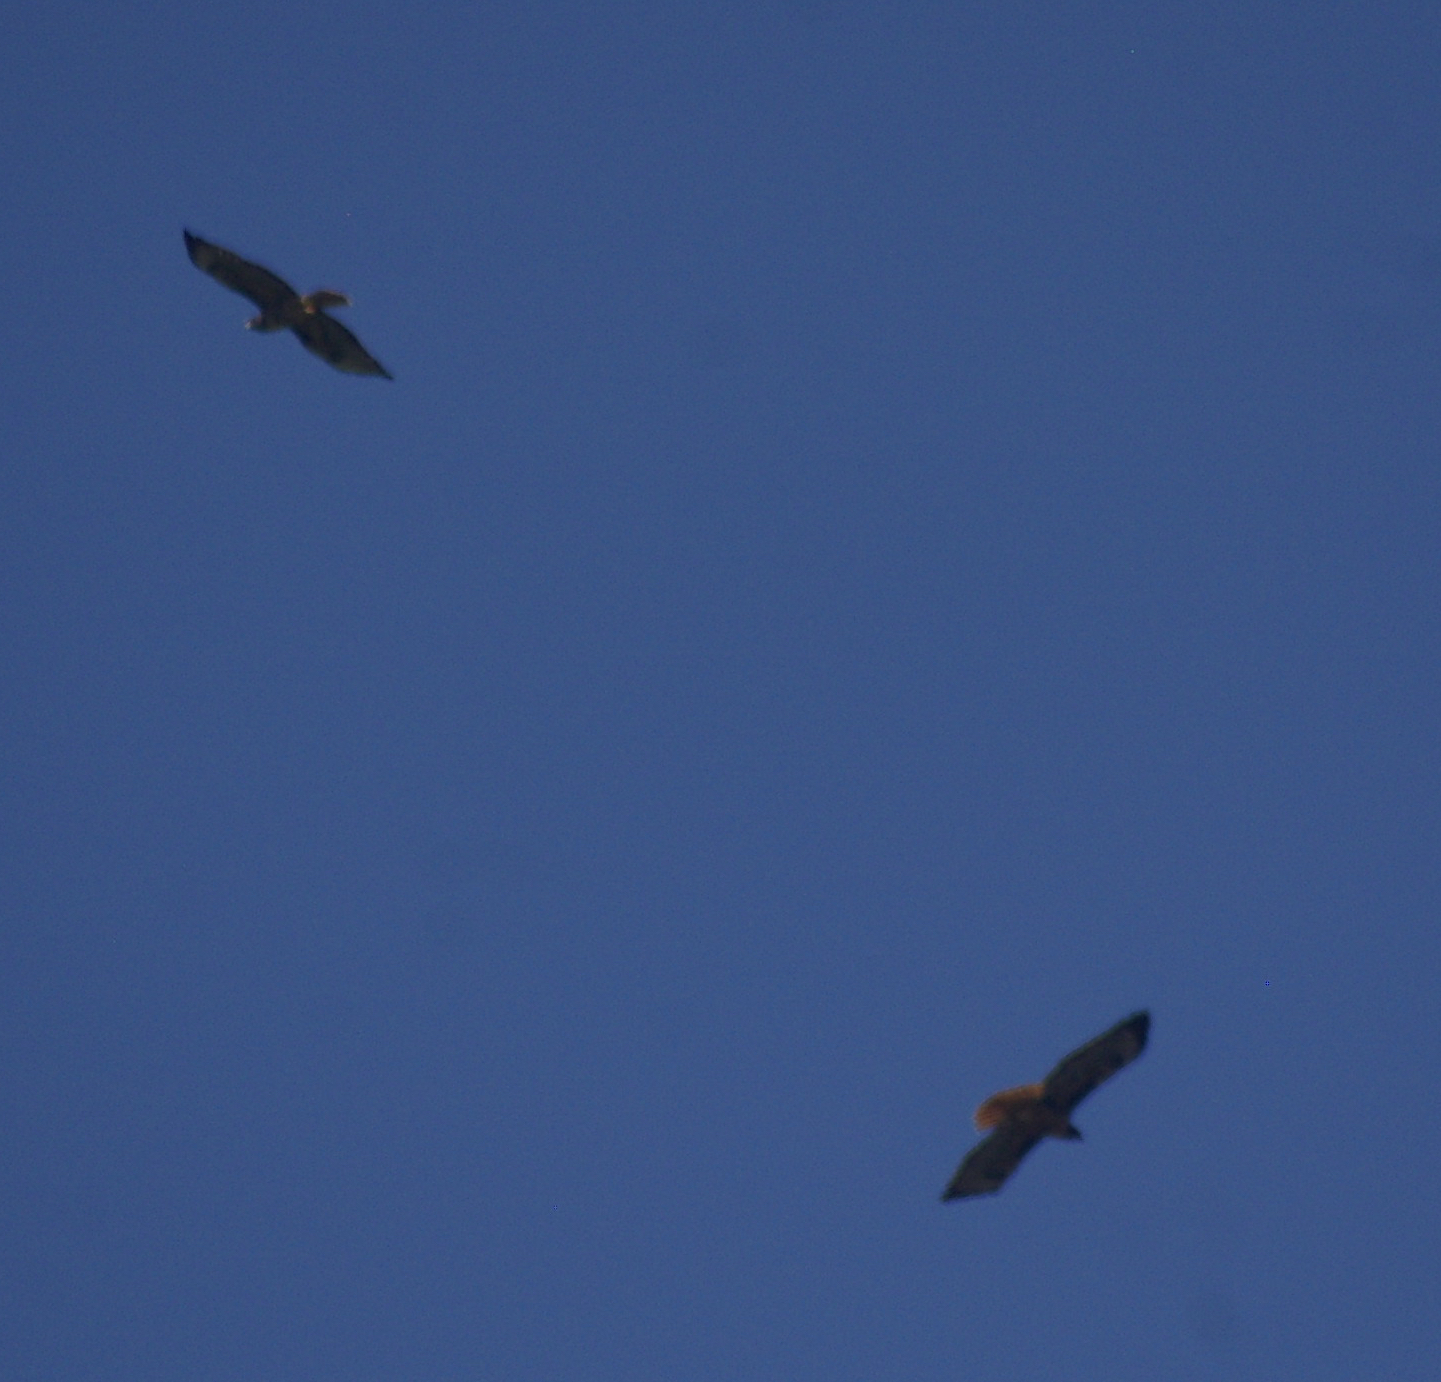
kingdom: Animalia
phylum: Chordata
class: Aves
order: Accipitriformes
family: Accipitridae
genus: Buteo
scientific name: Buteo jamaicensis
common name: Red-tailed hawk
